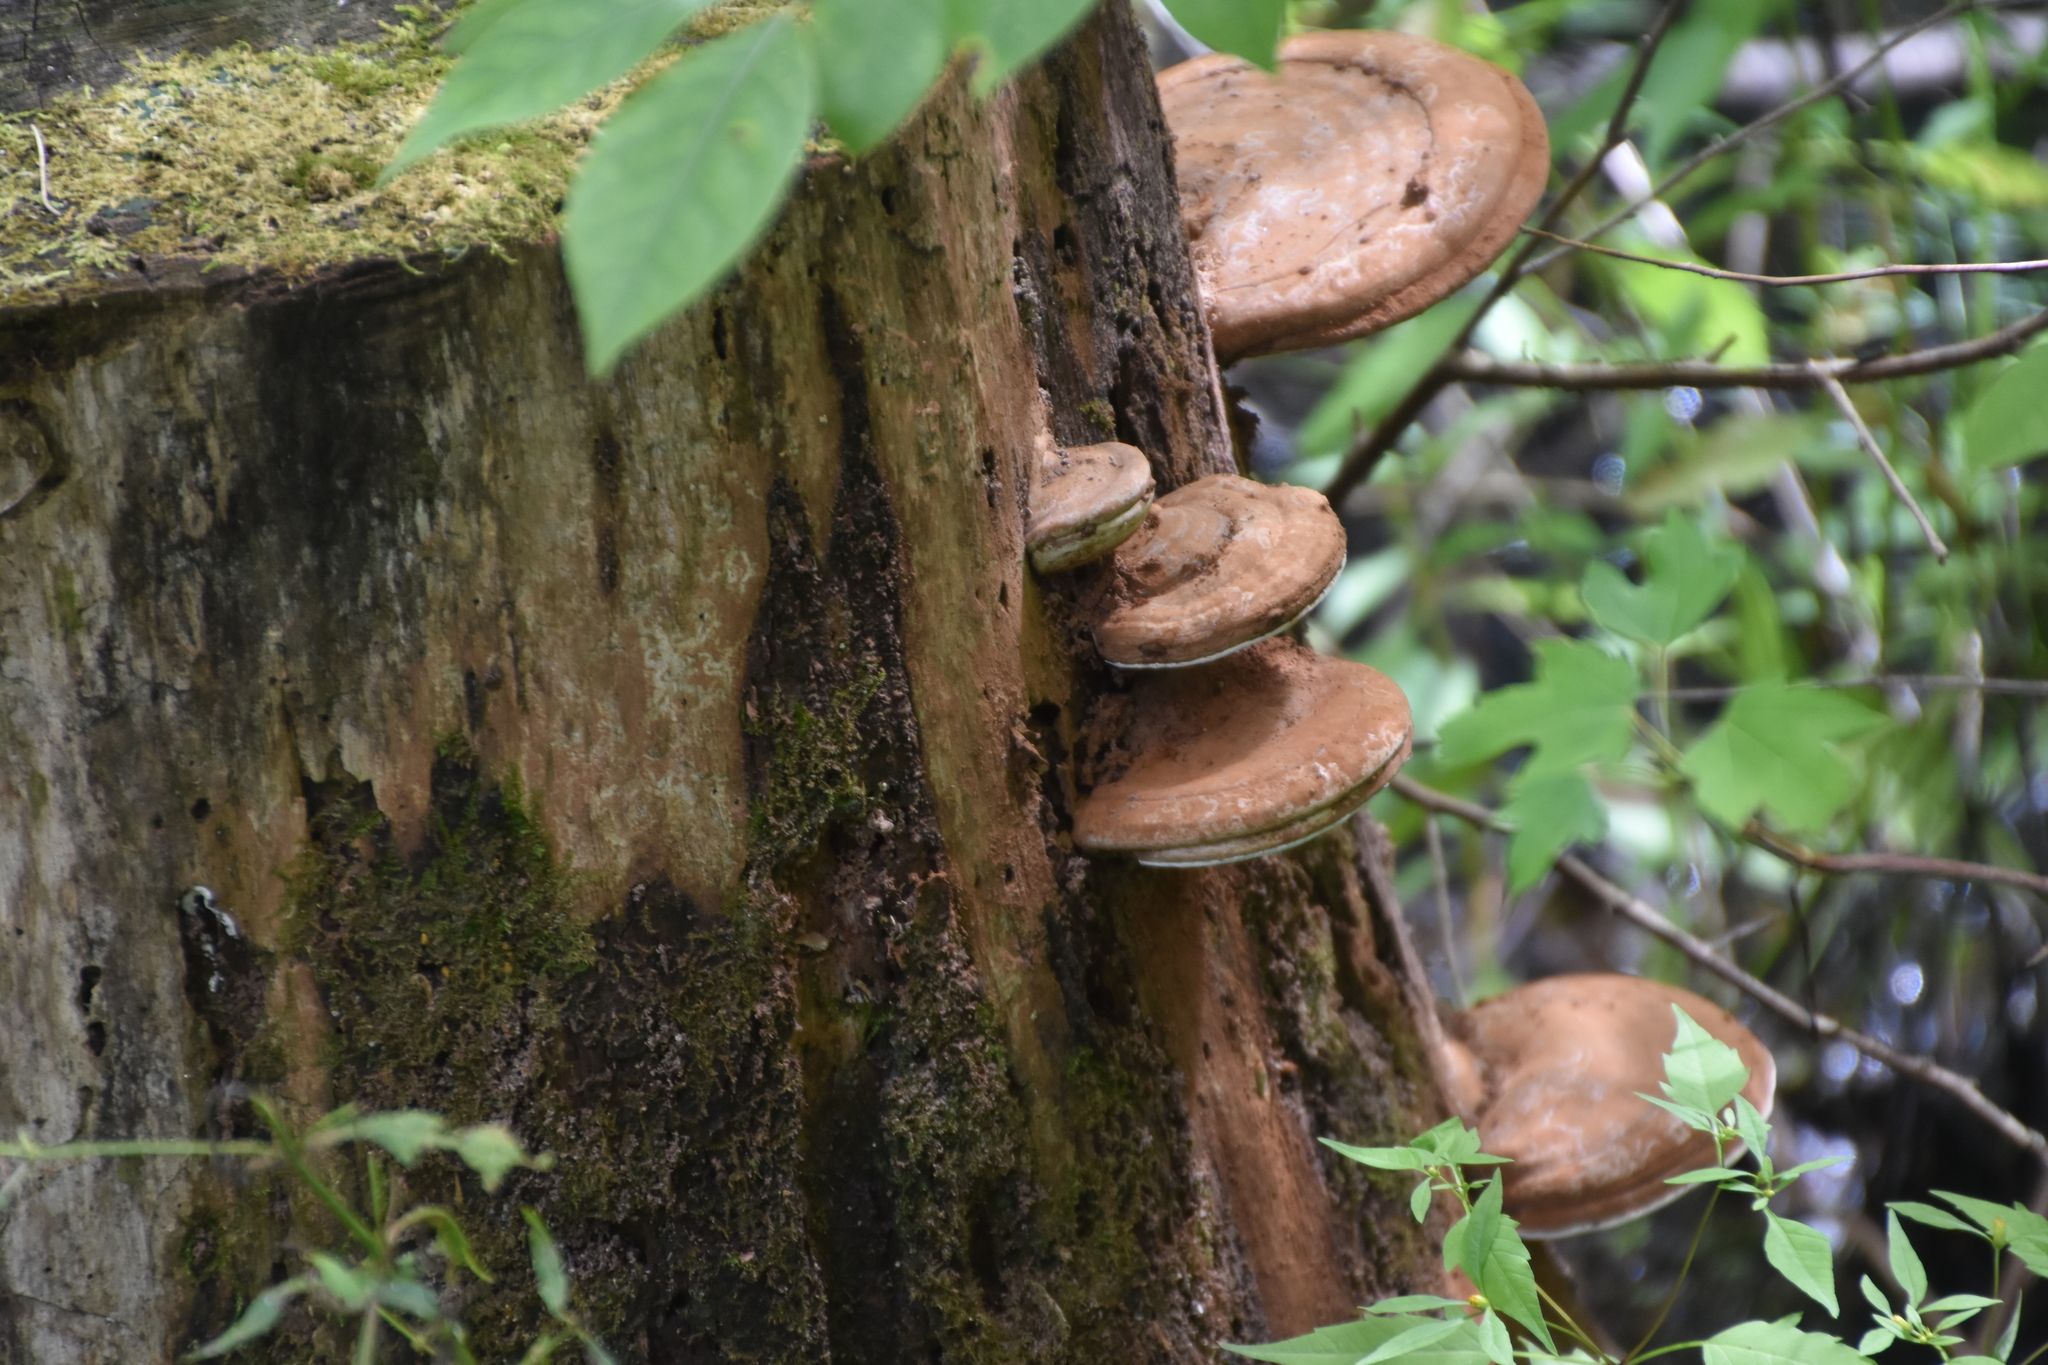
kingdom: Fungi
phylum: Basidiomycota
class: Agaricomycetes
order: Polyporales
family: Polyporaceae
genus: Ganoderma
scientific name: Ganoderma applanatum
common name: Artist's bracket
